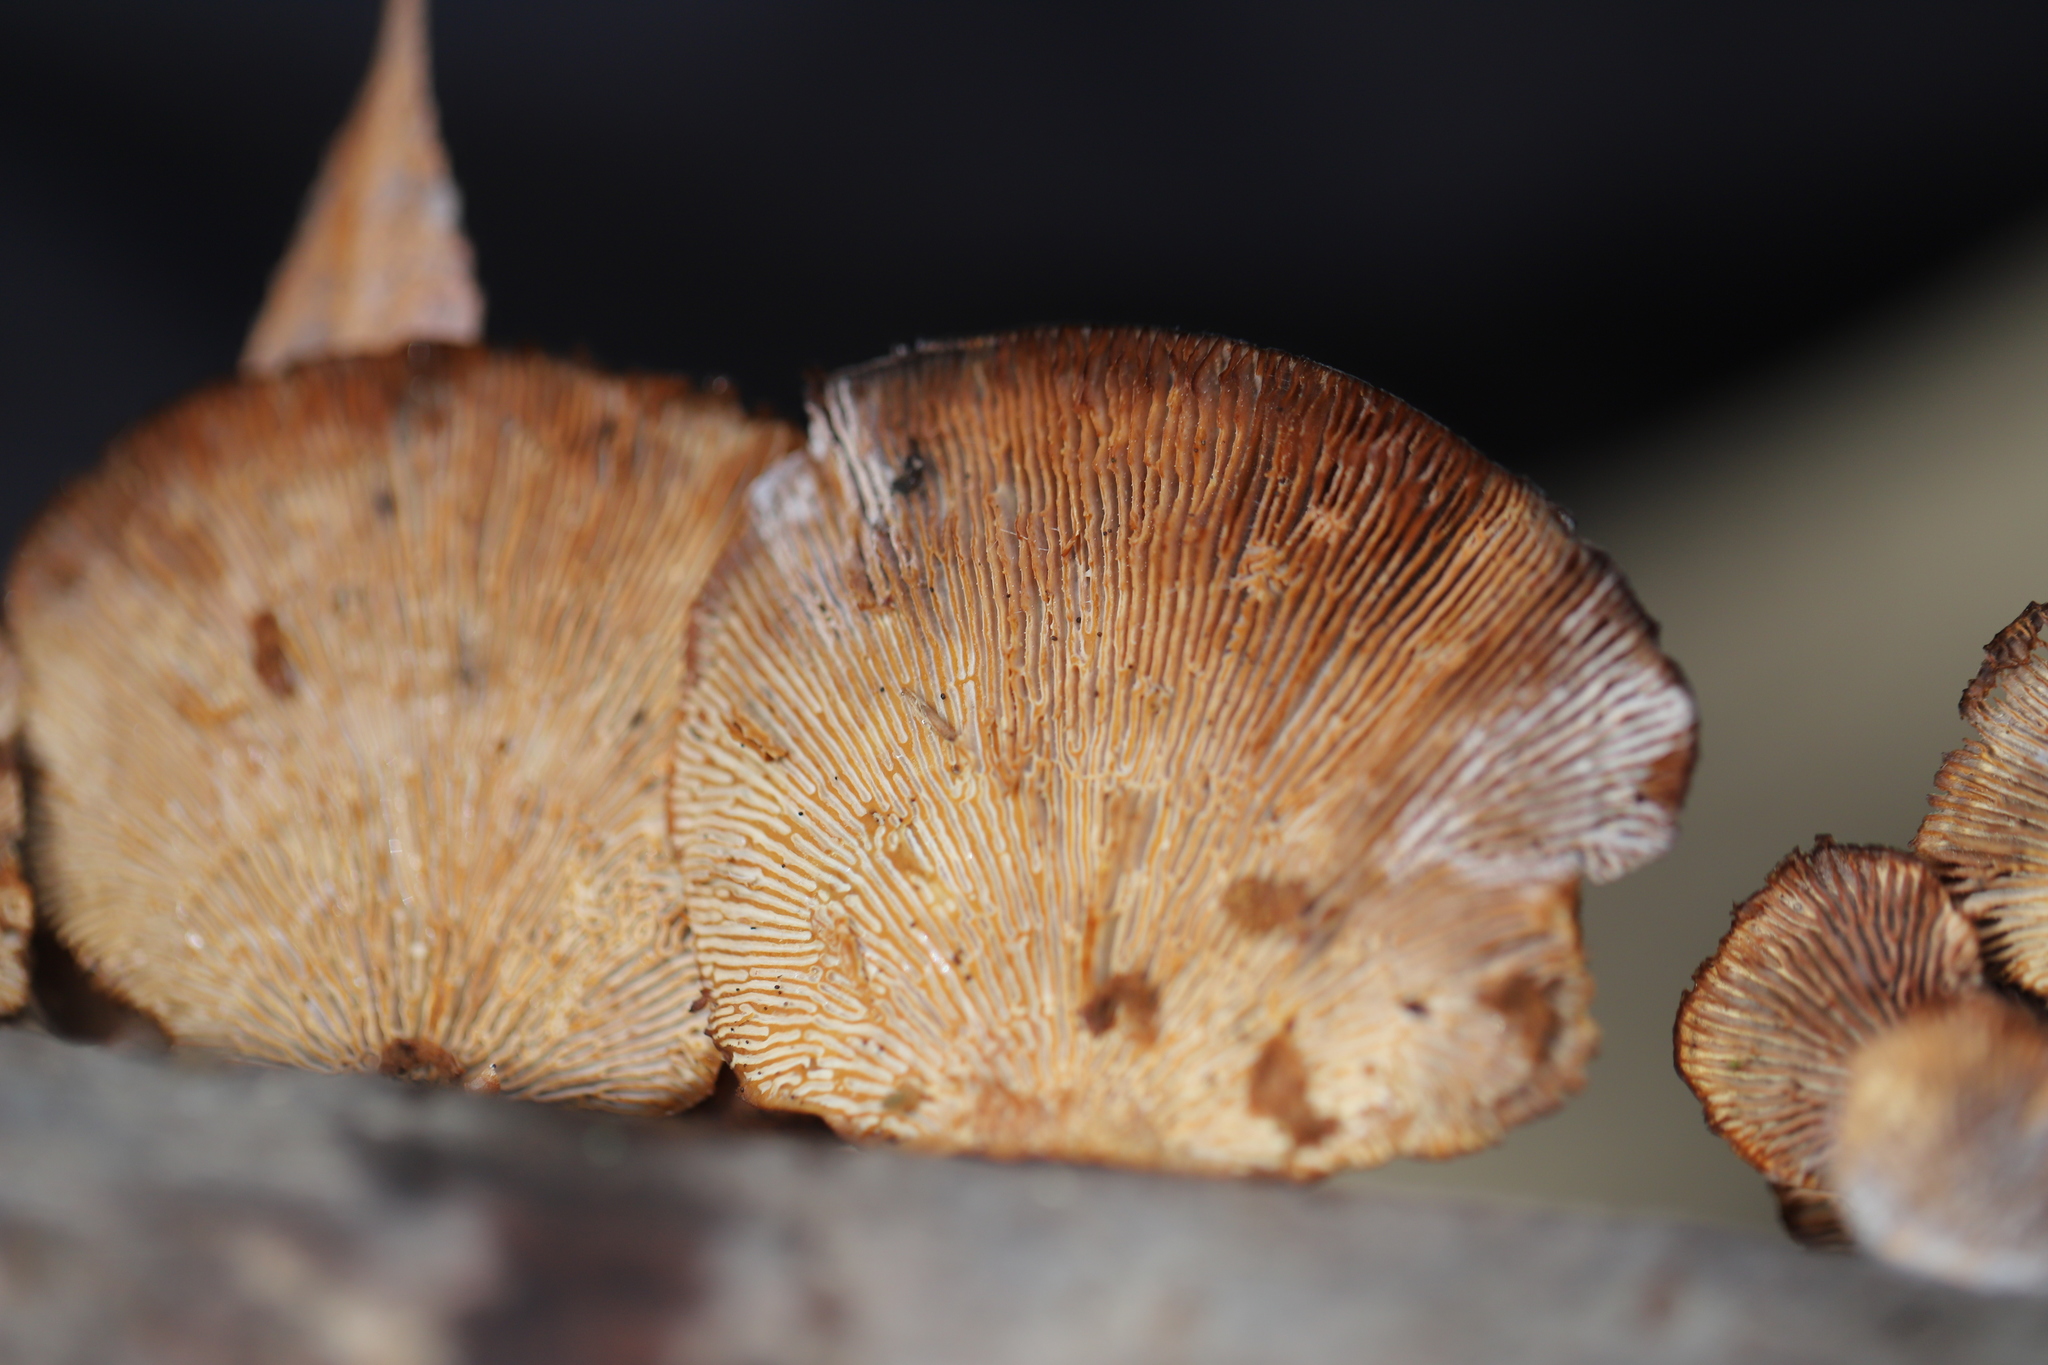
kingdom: Fungi
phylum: Basidiomycota
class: Agaricomycetes
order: Polyporales
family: Polyporaceae
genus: Daedaleopsis
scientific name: Daedaleopsis confragosa
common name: Blushing bracket
